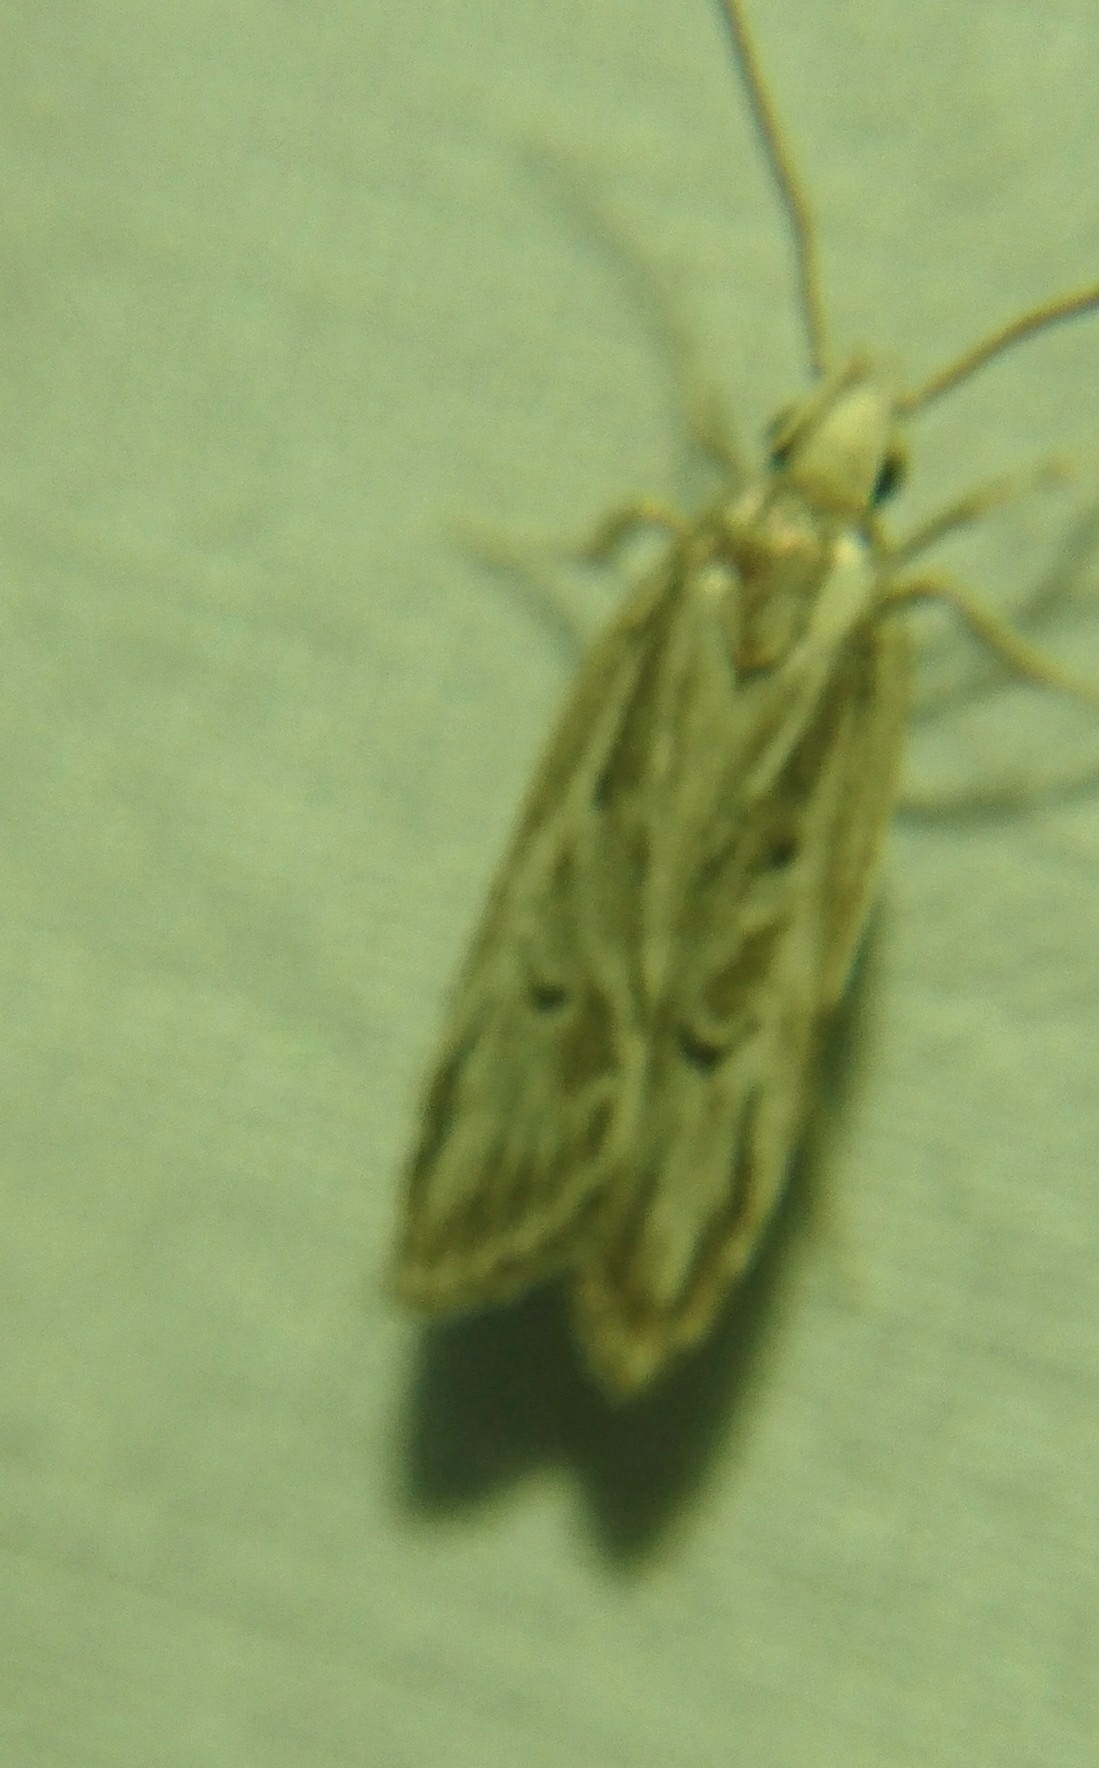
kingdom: Animalia
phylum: Arthropoda
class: Insecta
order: Lepidoptera
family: Depressariidae
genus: Eupragia
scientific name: Eupragia hospita
